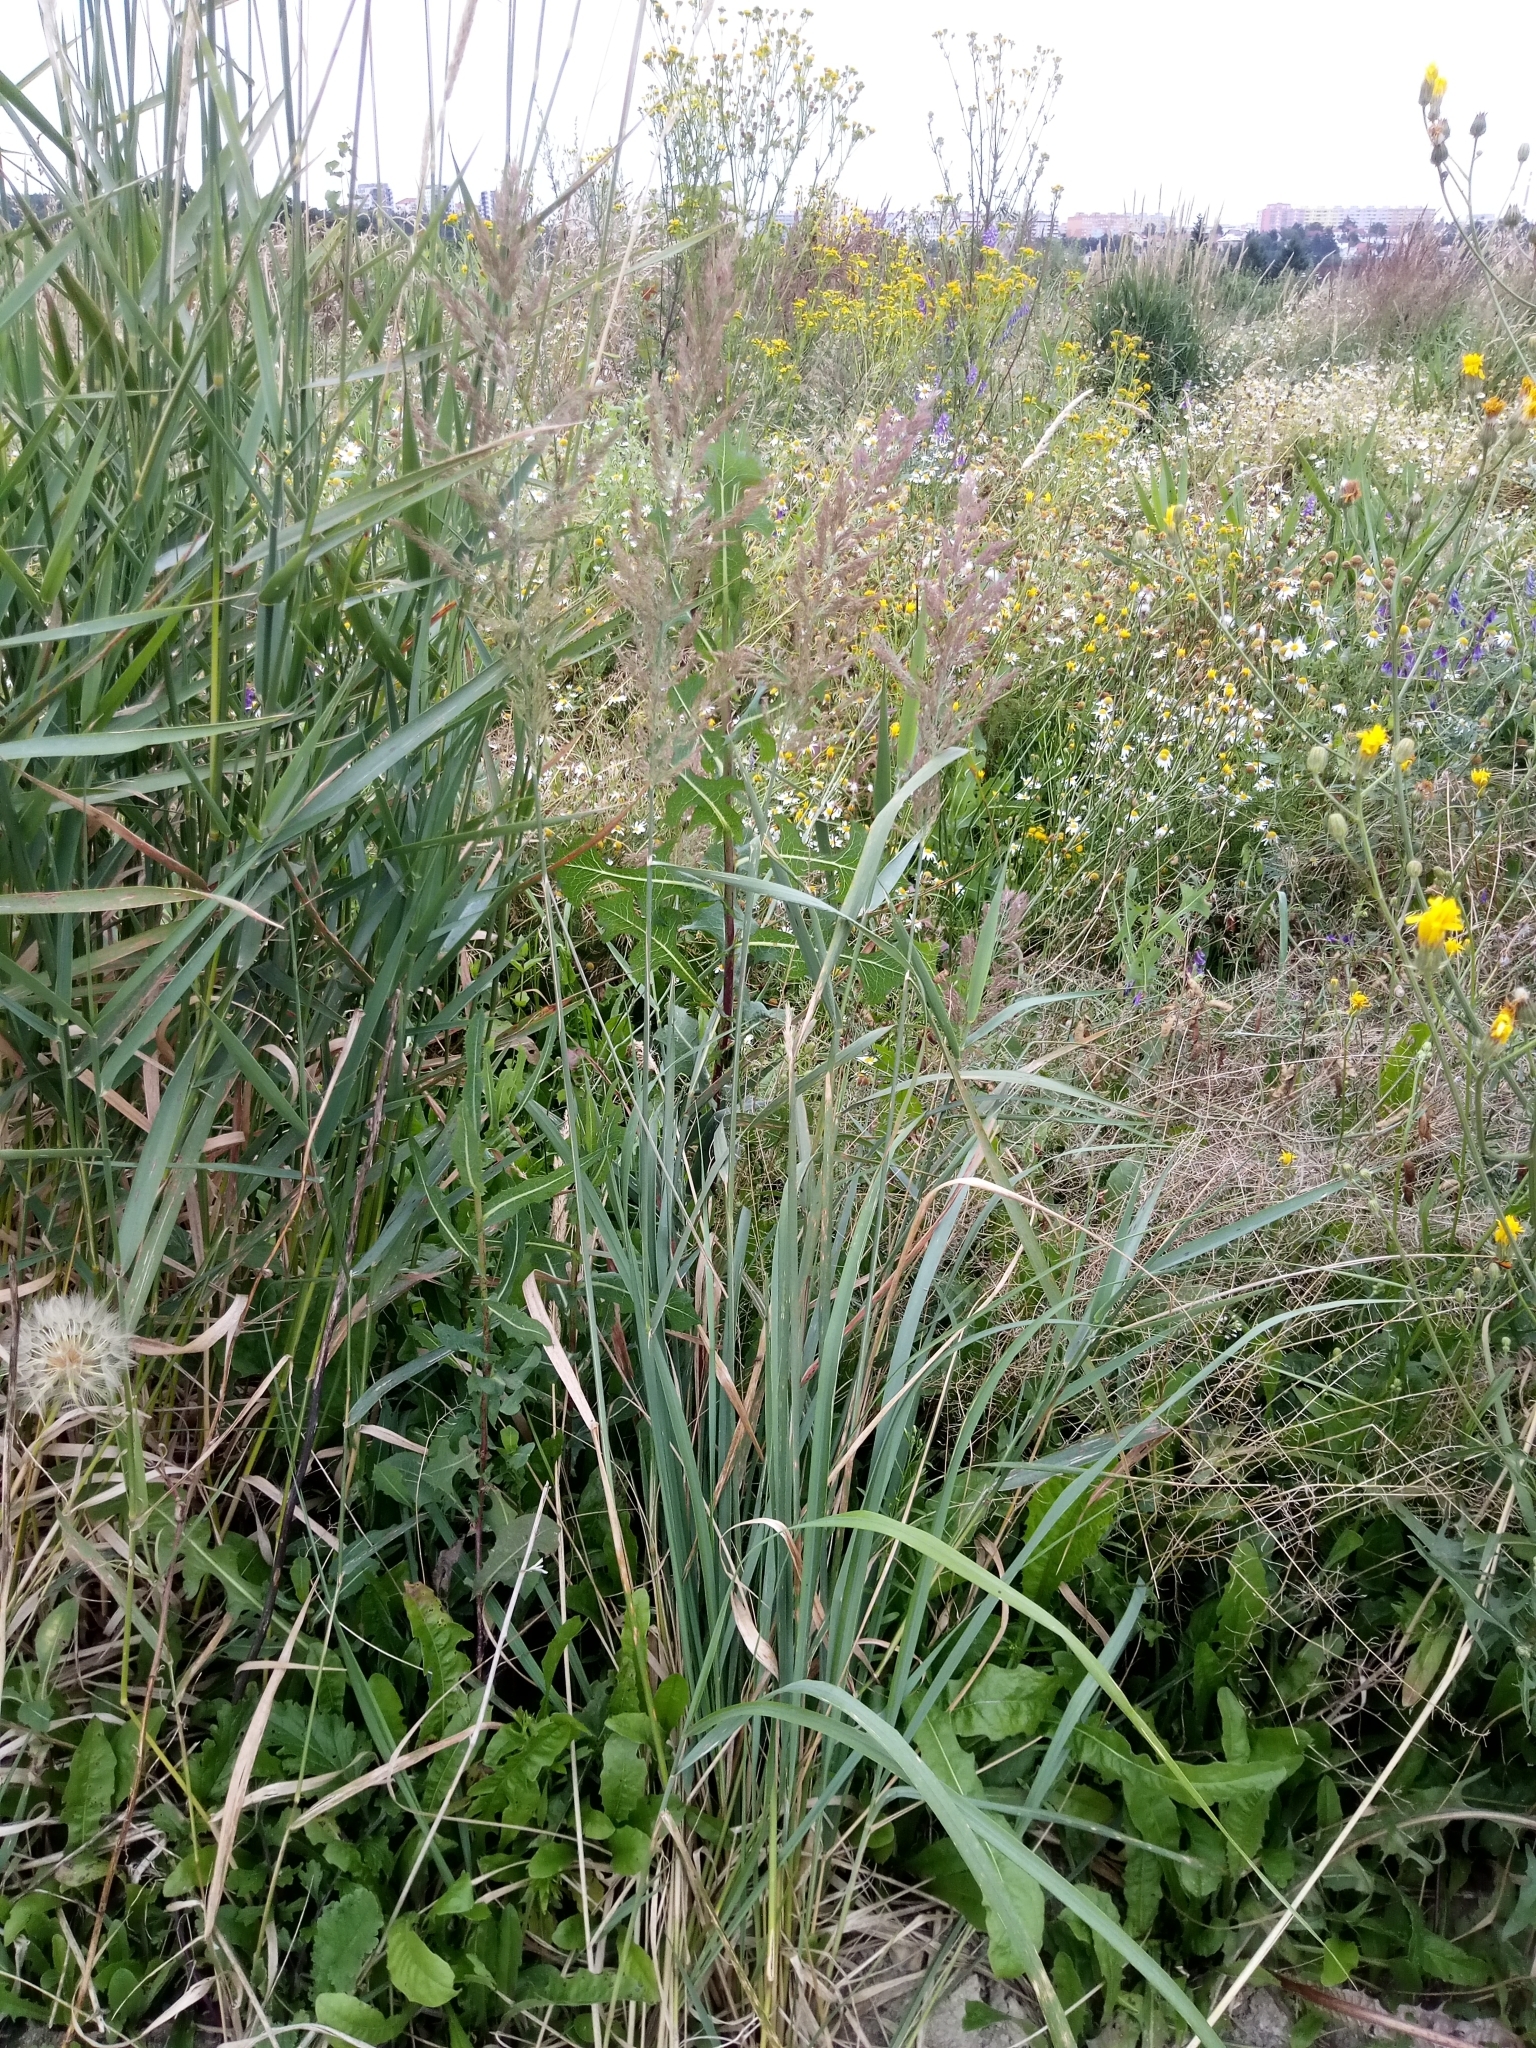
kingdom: Plantae
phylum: Tracheophyta
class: Liliopsida
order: Poales
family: Poaceae
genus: Calamagrostis
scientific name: Calamagrostis epigejos
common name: Wood small-reed
